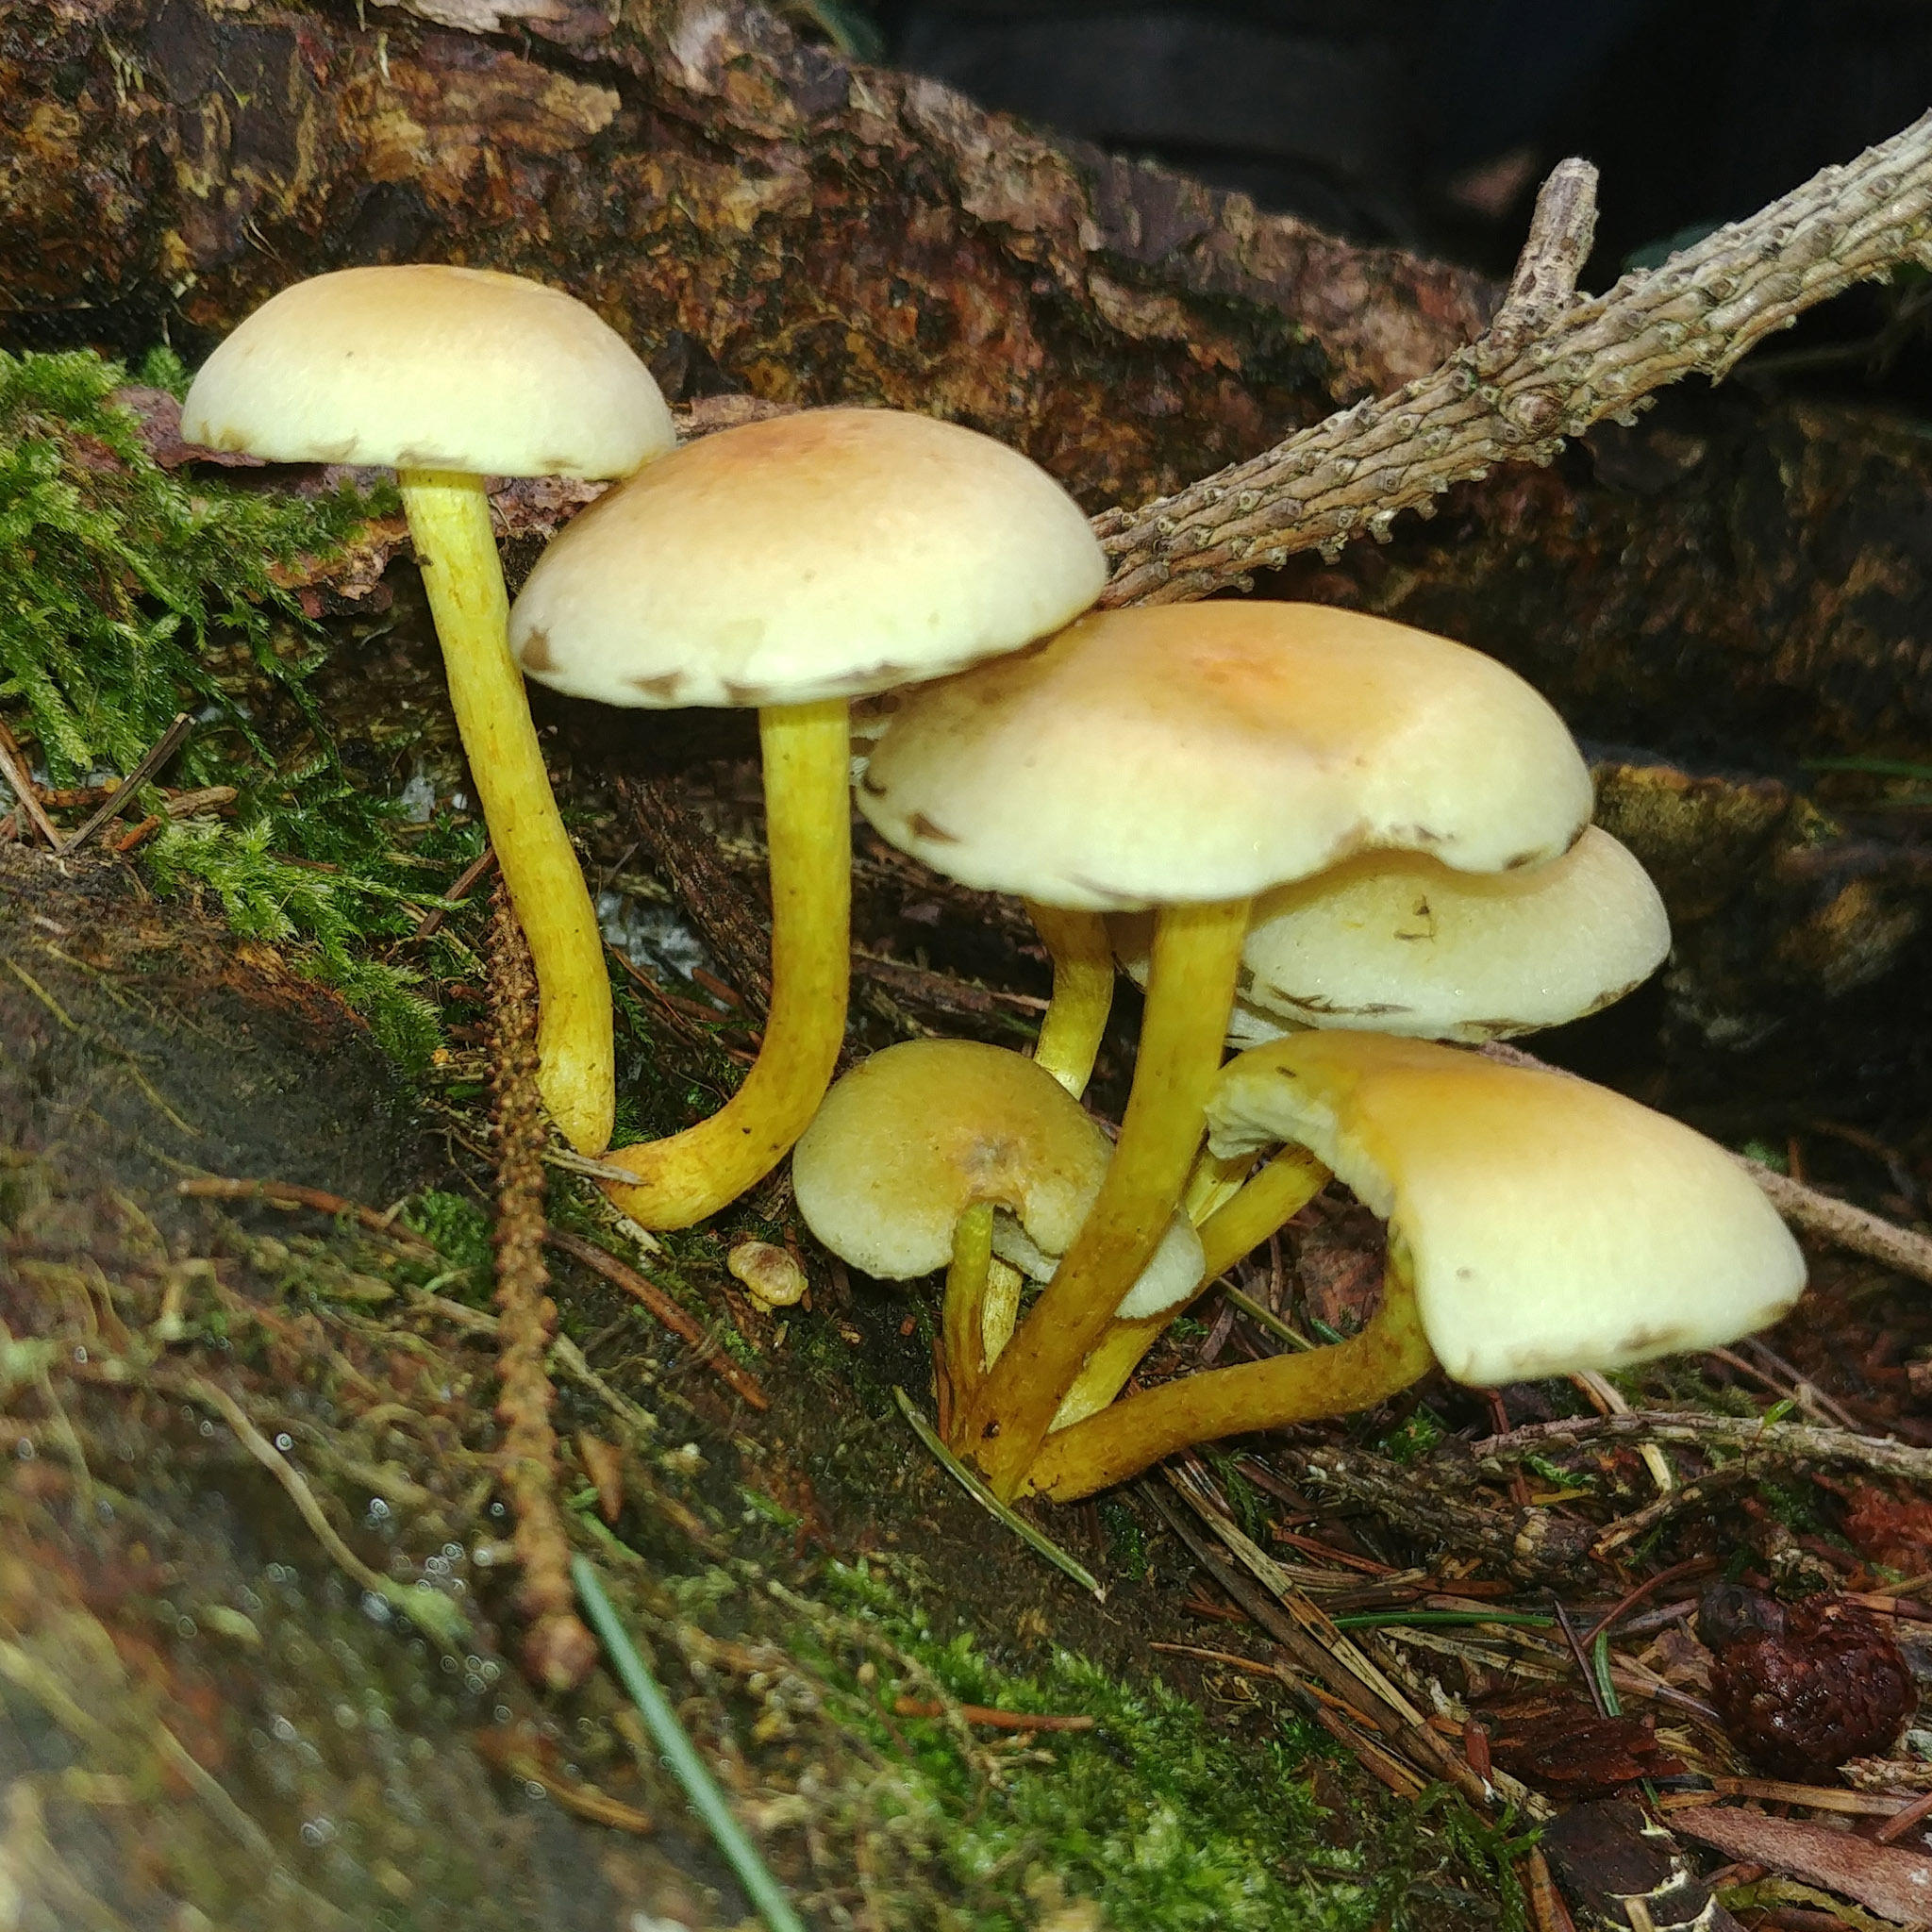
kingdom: Fungi
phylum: Basidiomycota
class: Agaricomycetes
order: Agaricales
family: Strophariaceae
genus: Hypholoma
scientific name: Hypholoma fasciculare
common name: Sulphur tuft
